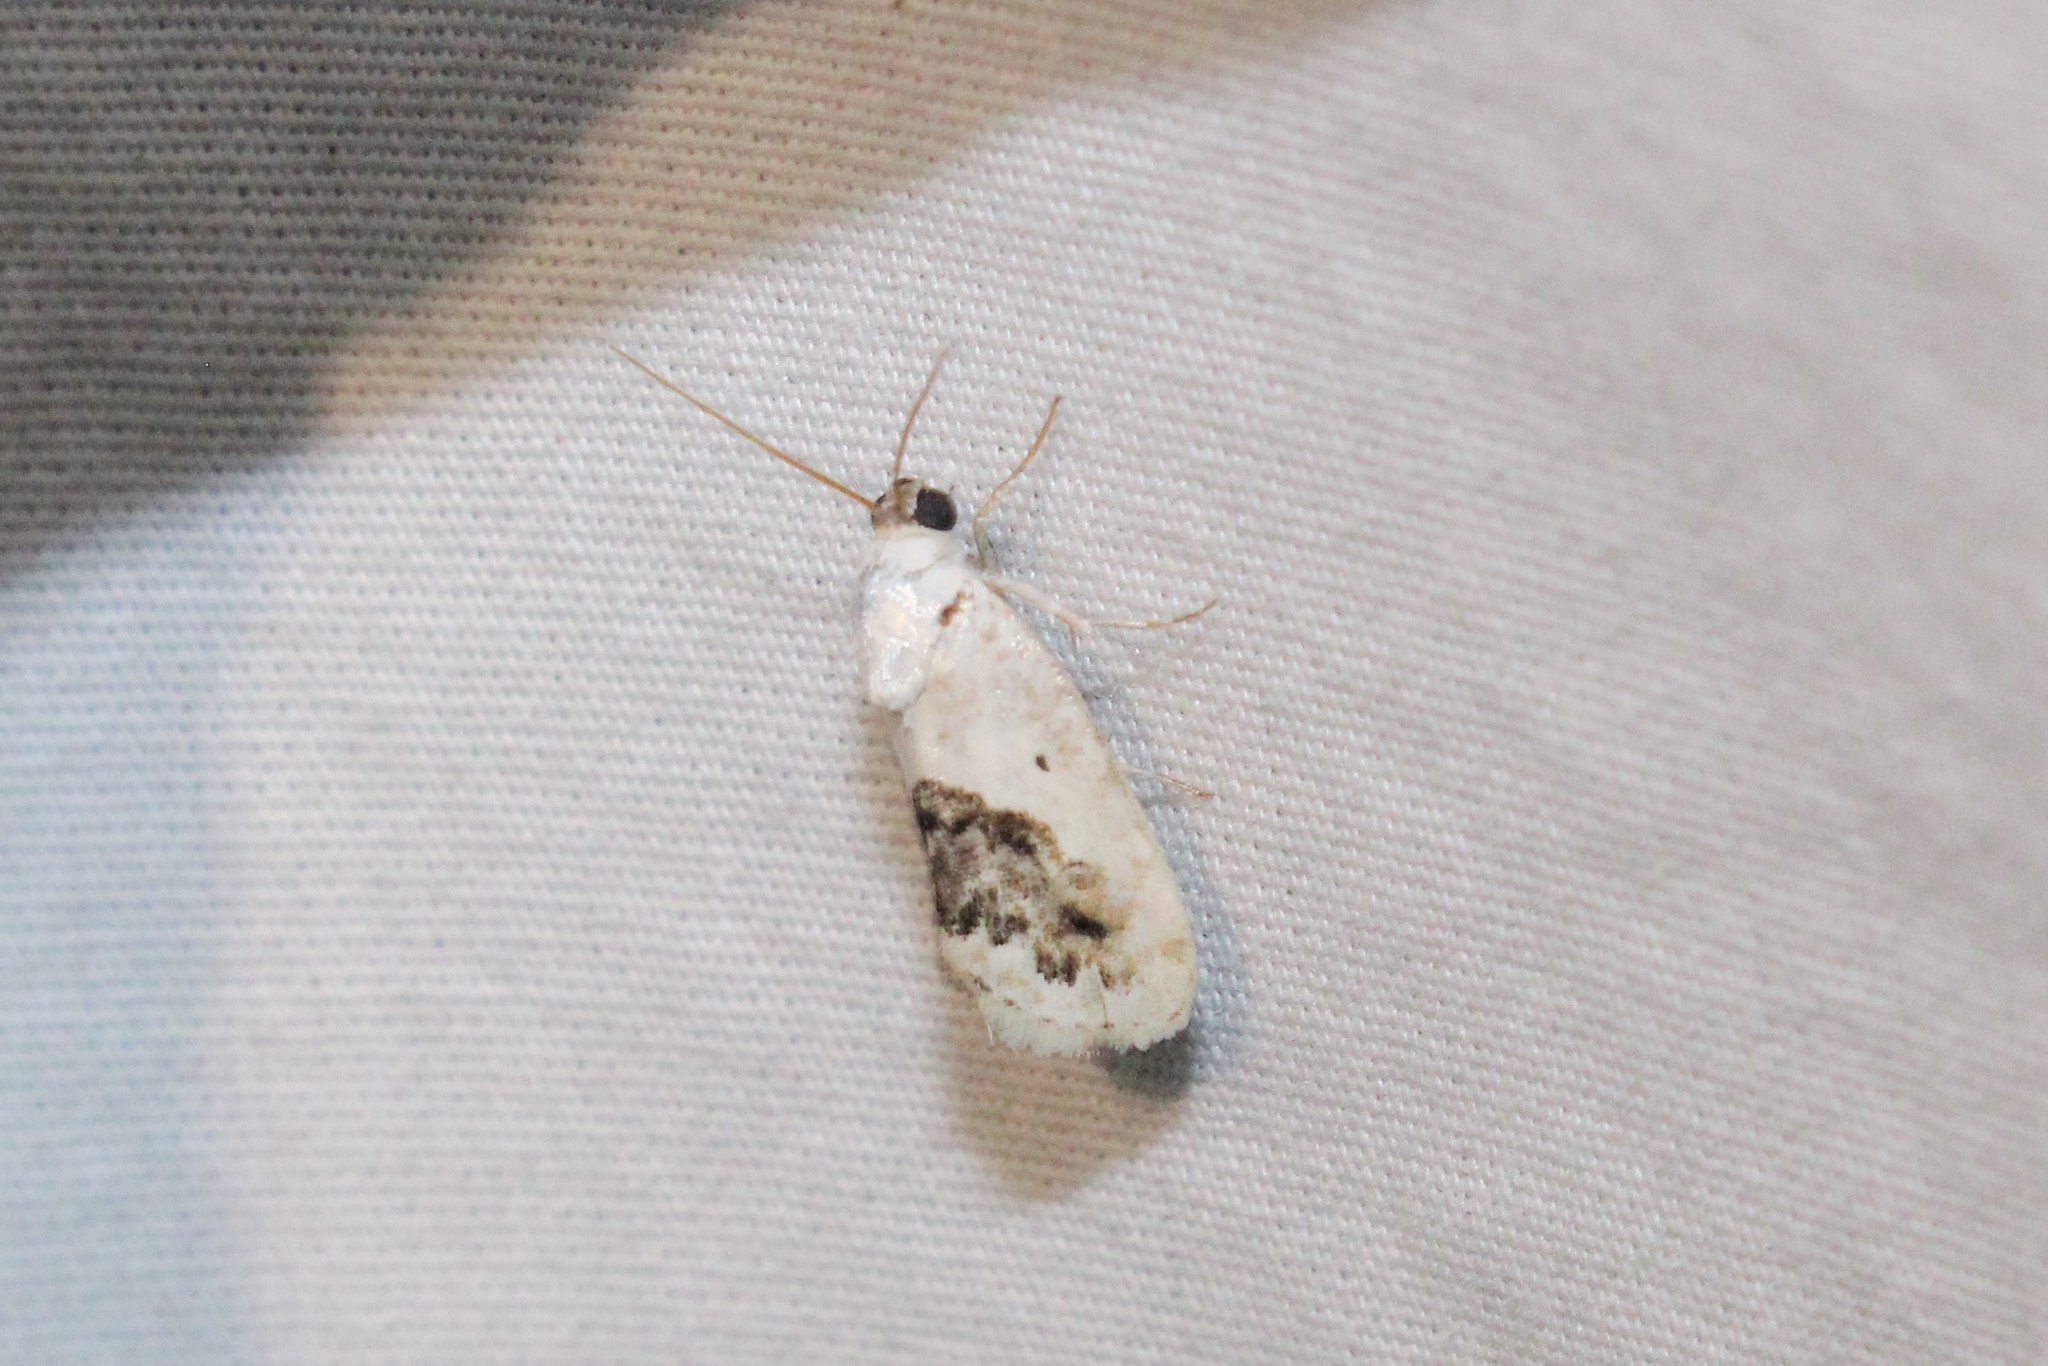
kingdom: Animalia
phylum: Arthropoda
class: Insecta
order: Lepidoptera
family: Noctuidae
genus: Acontia
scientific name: Acontia erastrioides
